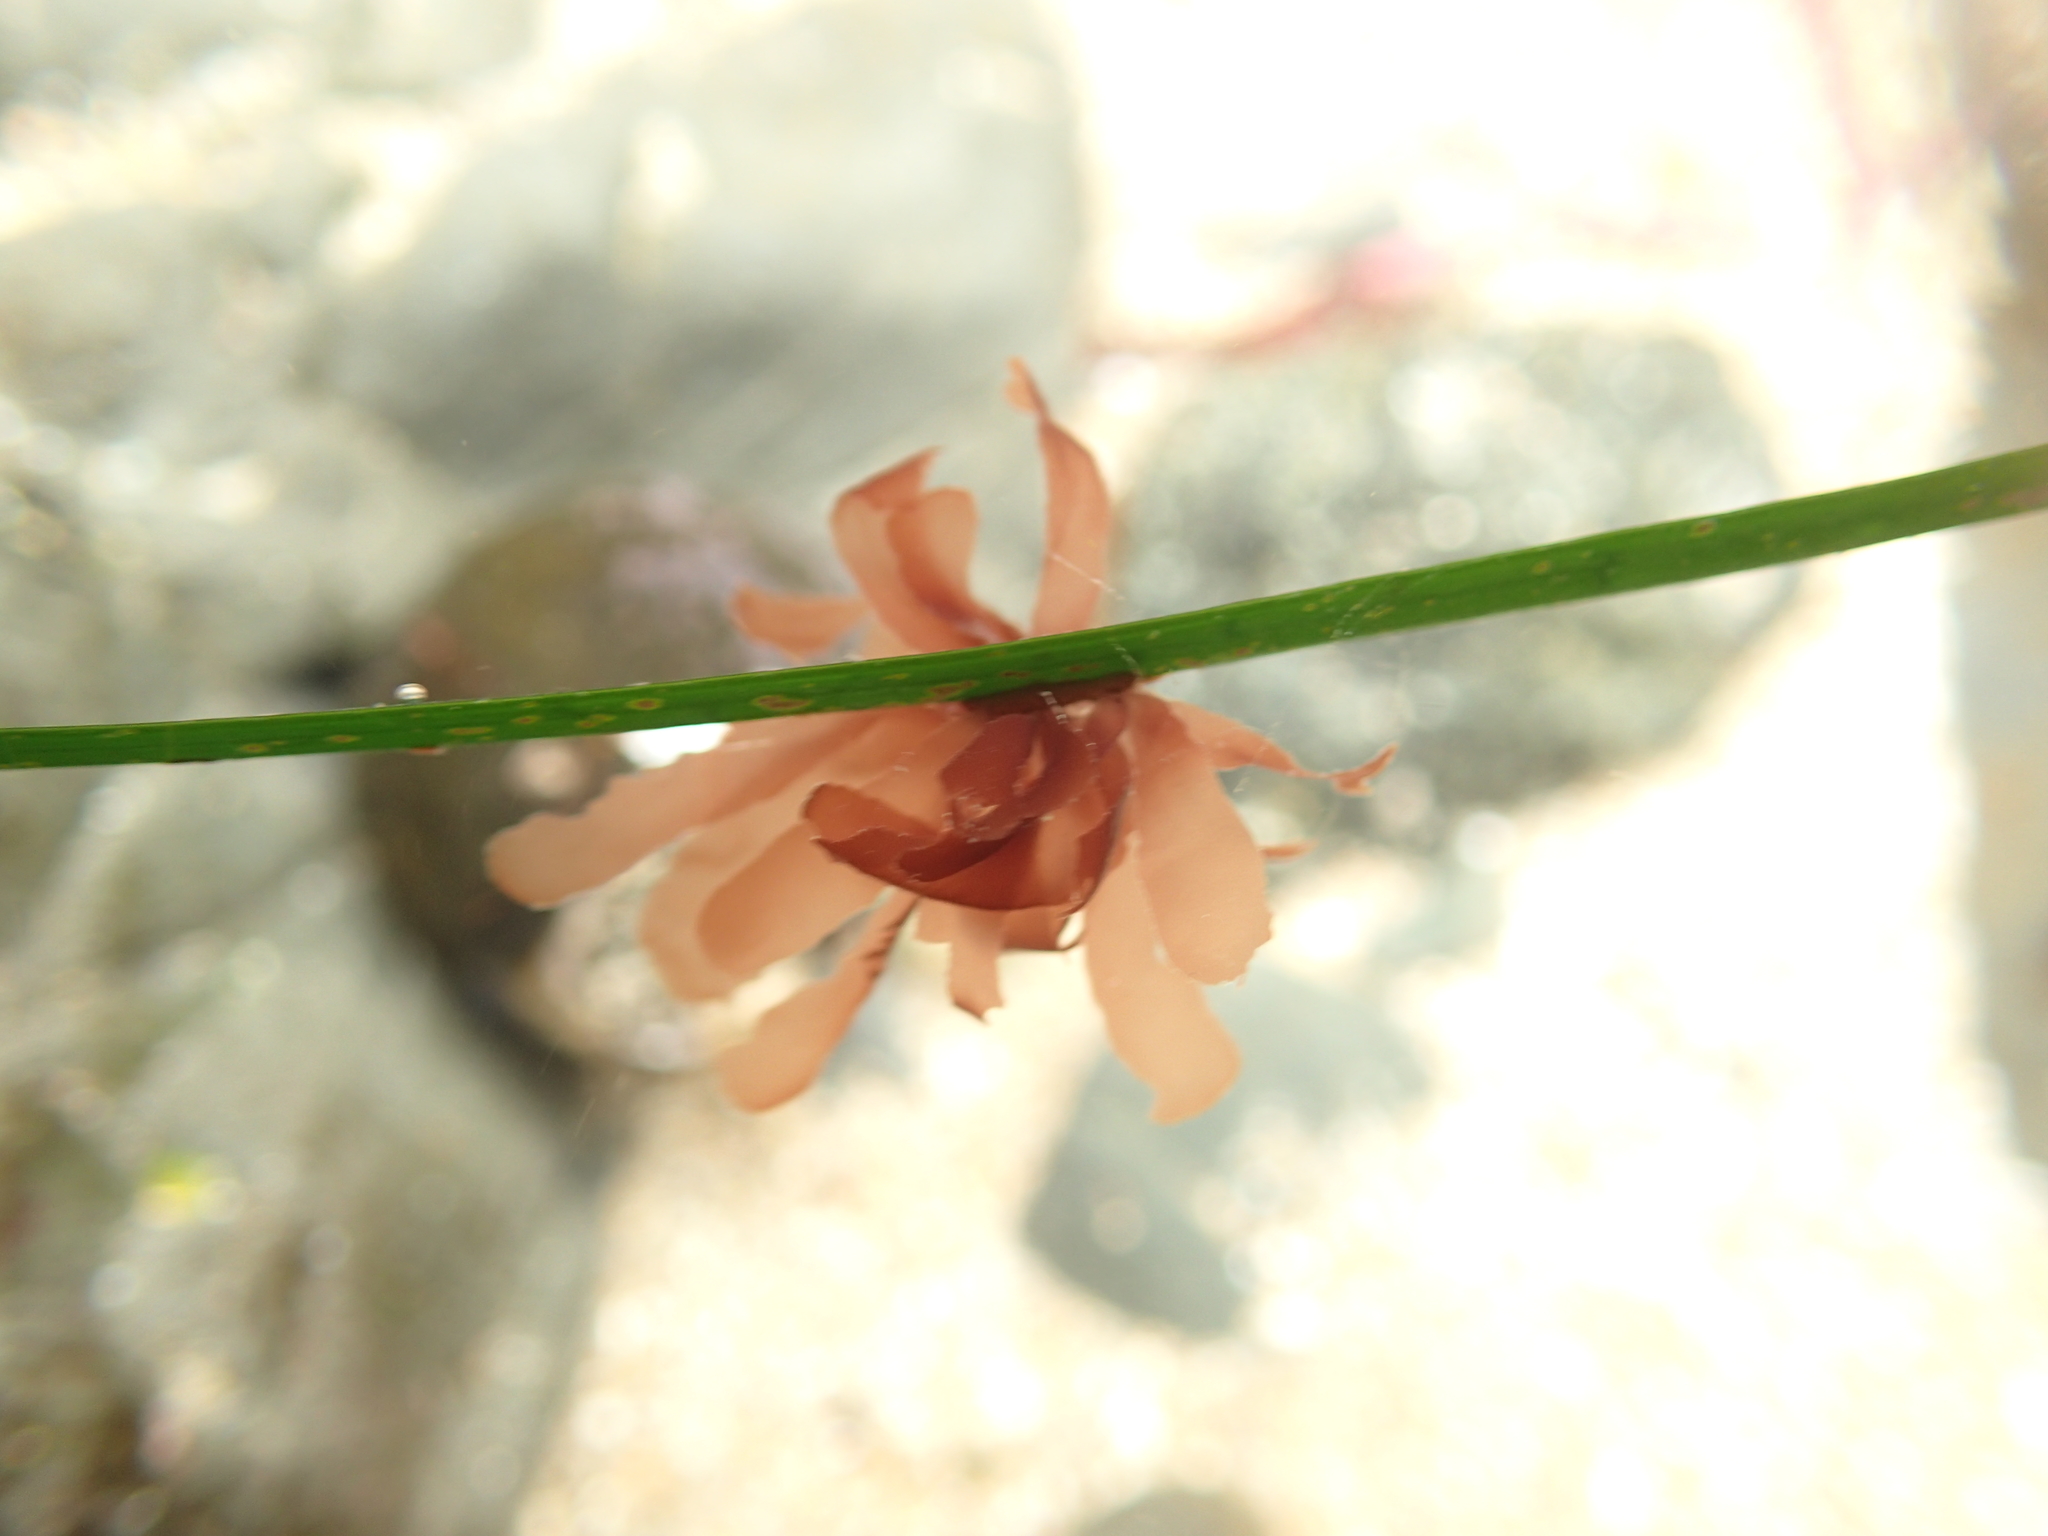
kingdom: Plantae
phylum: Rhodophyta
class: Compsopogonophyceae
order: Erythropeltidales
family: Erythrotrichiaceae
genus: Smithora
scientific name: Smithora naiadum
